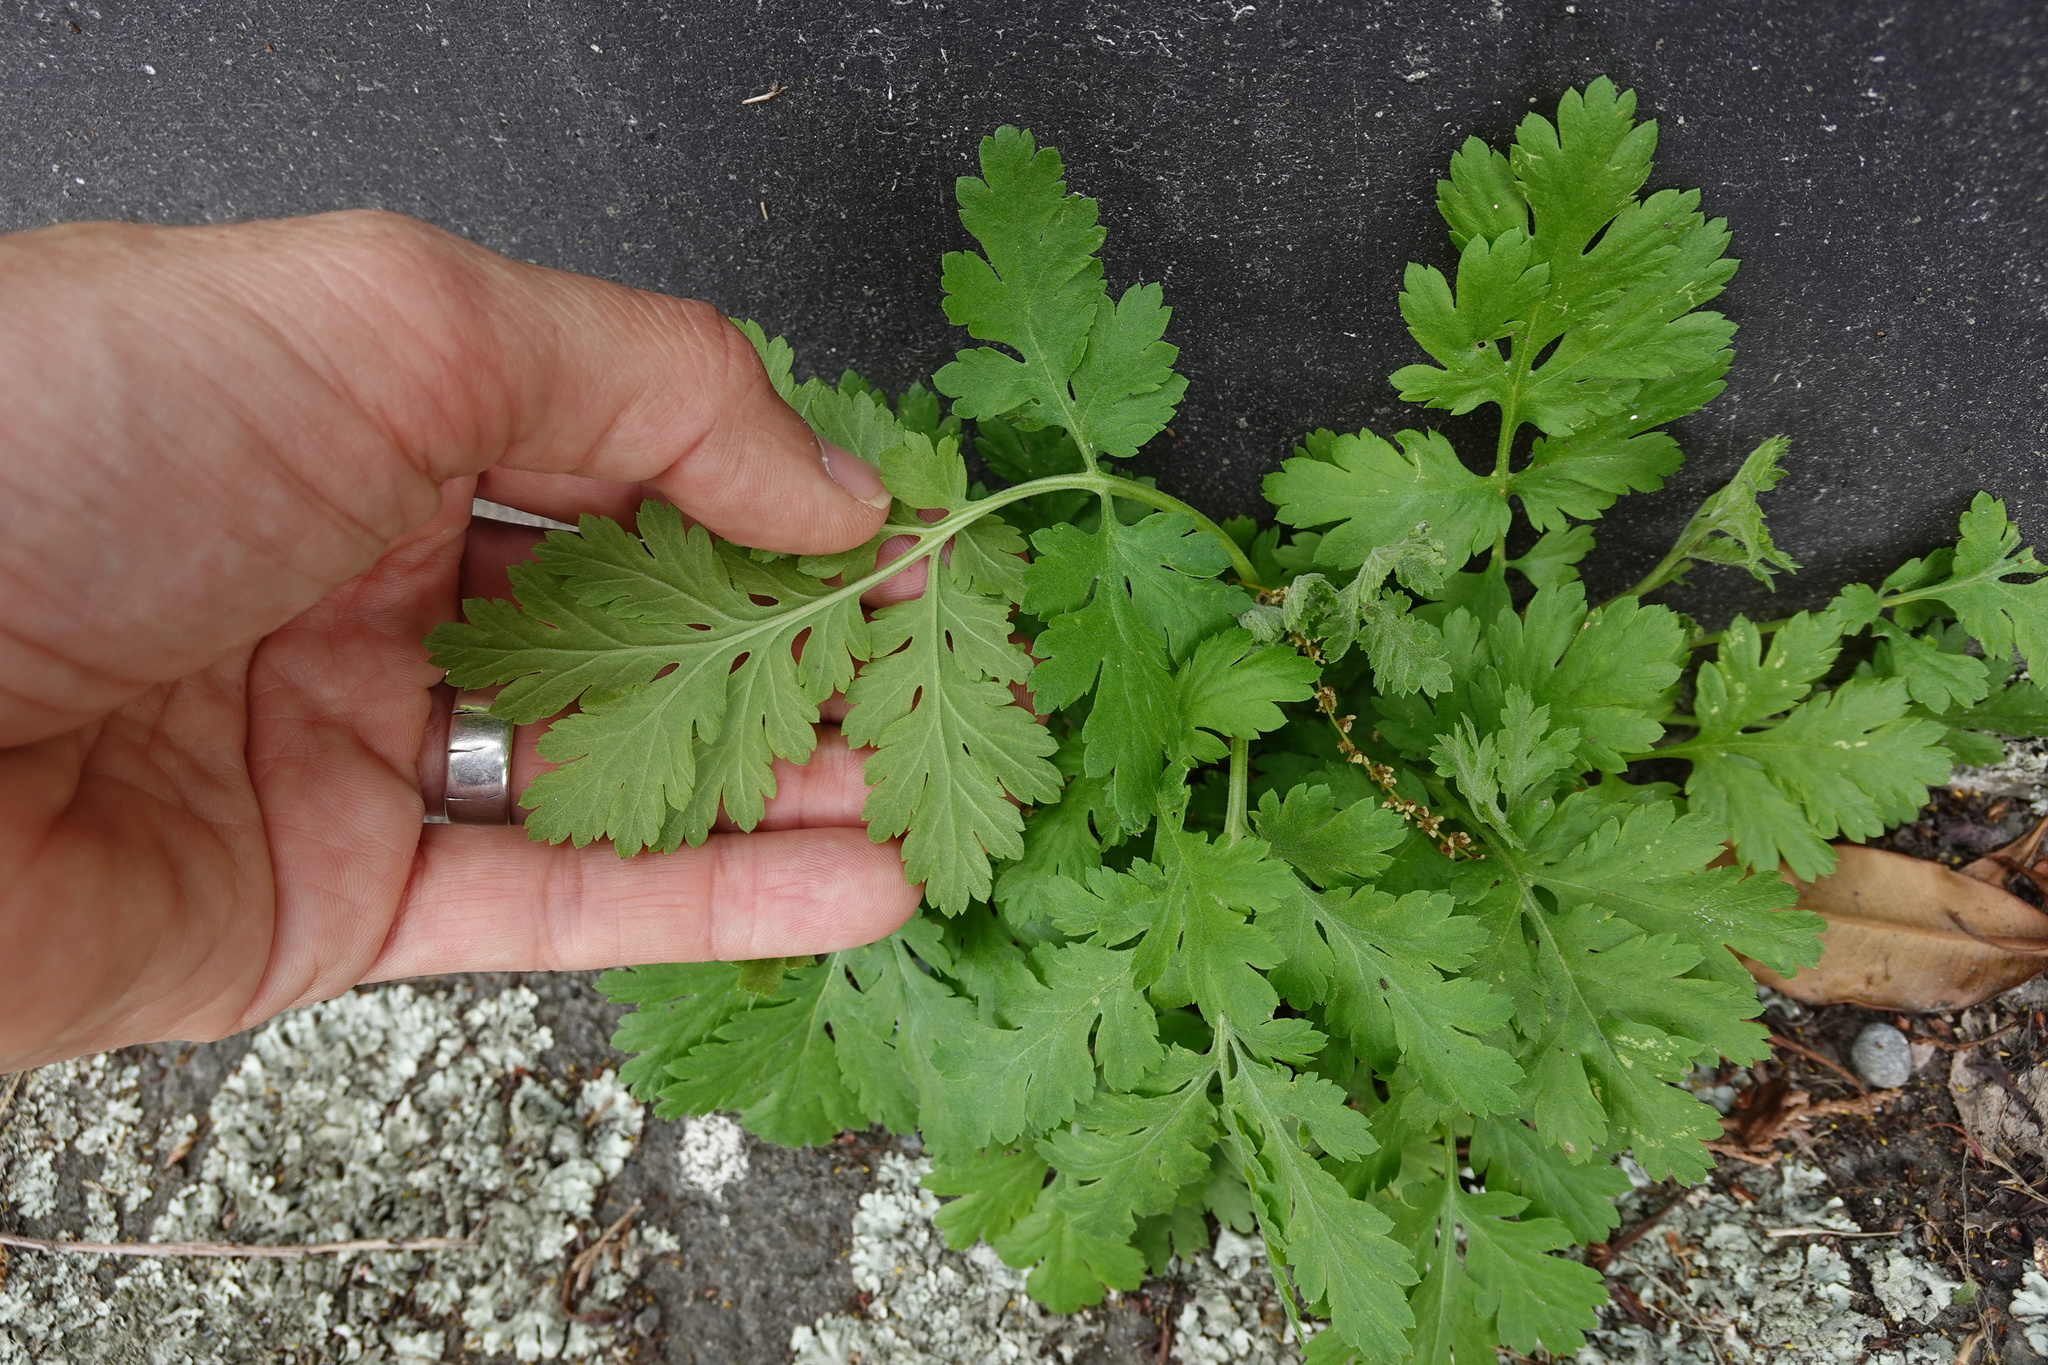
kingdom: Plantae
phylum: Tracheophyta
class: Magnoliopsida
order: Asterales
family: Asteraceae
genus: Tanacetum
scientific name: Tanacetum parthenium
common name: Feverfew
